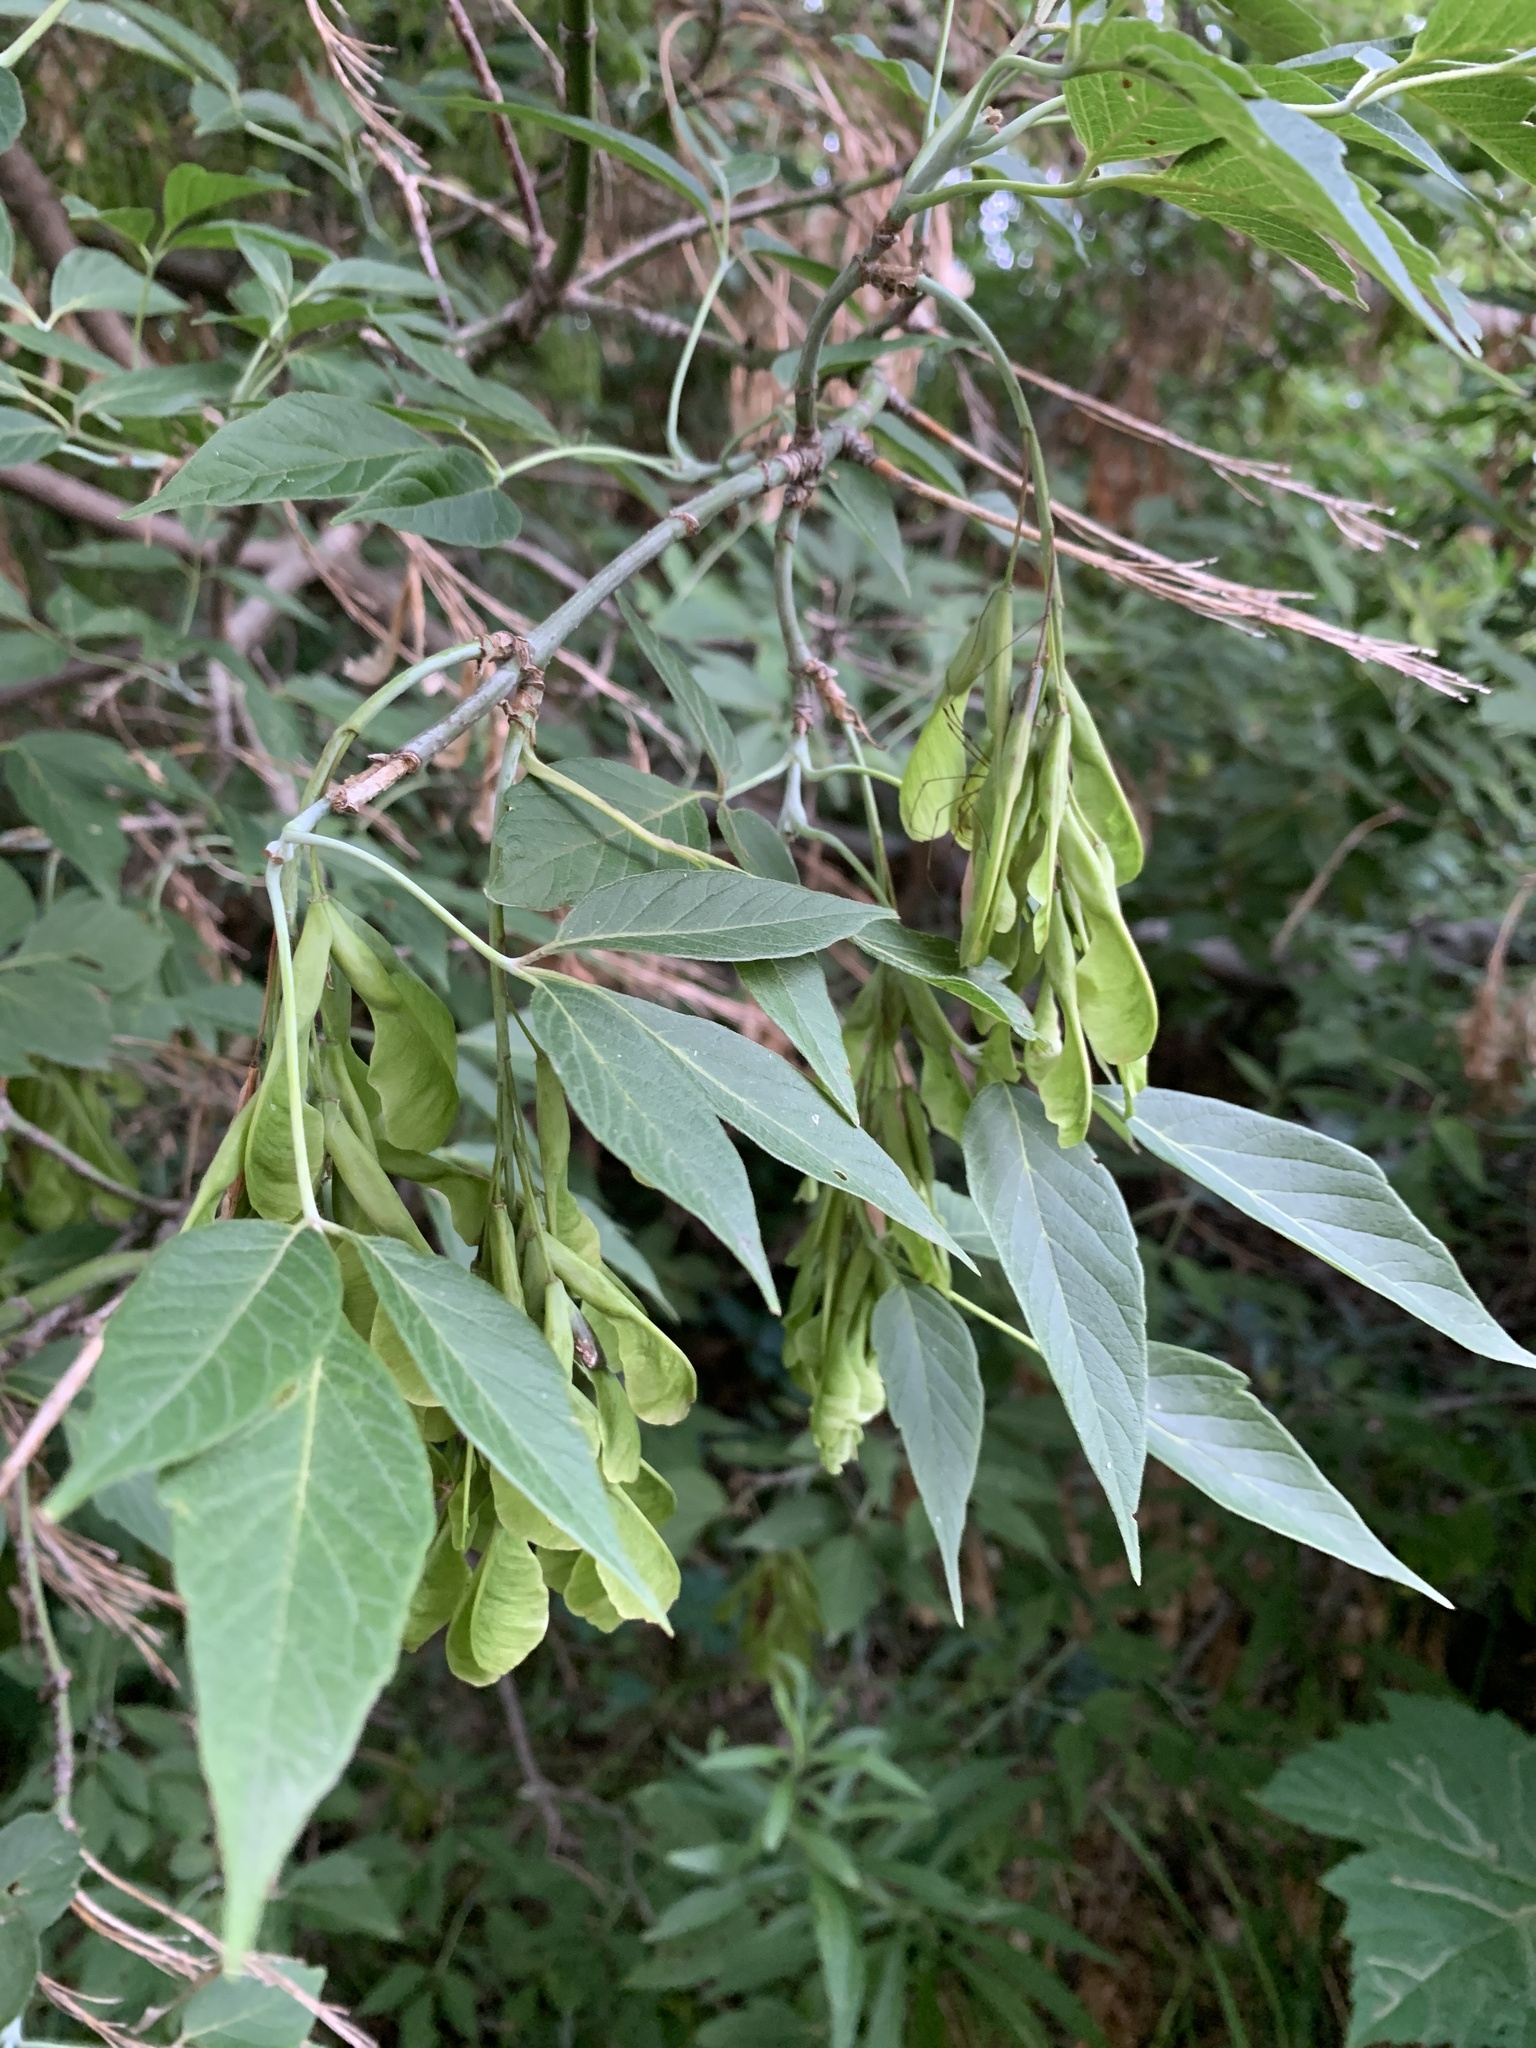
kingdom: Plantae
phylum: Tracheophyta
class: Magnoliopsida
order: Sapindales
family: Sapindaceae
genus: Acer
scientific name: Acer negundo
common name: Ashleaf maple
